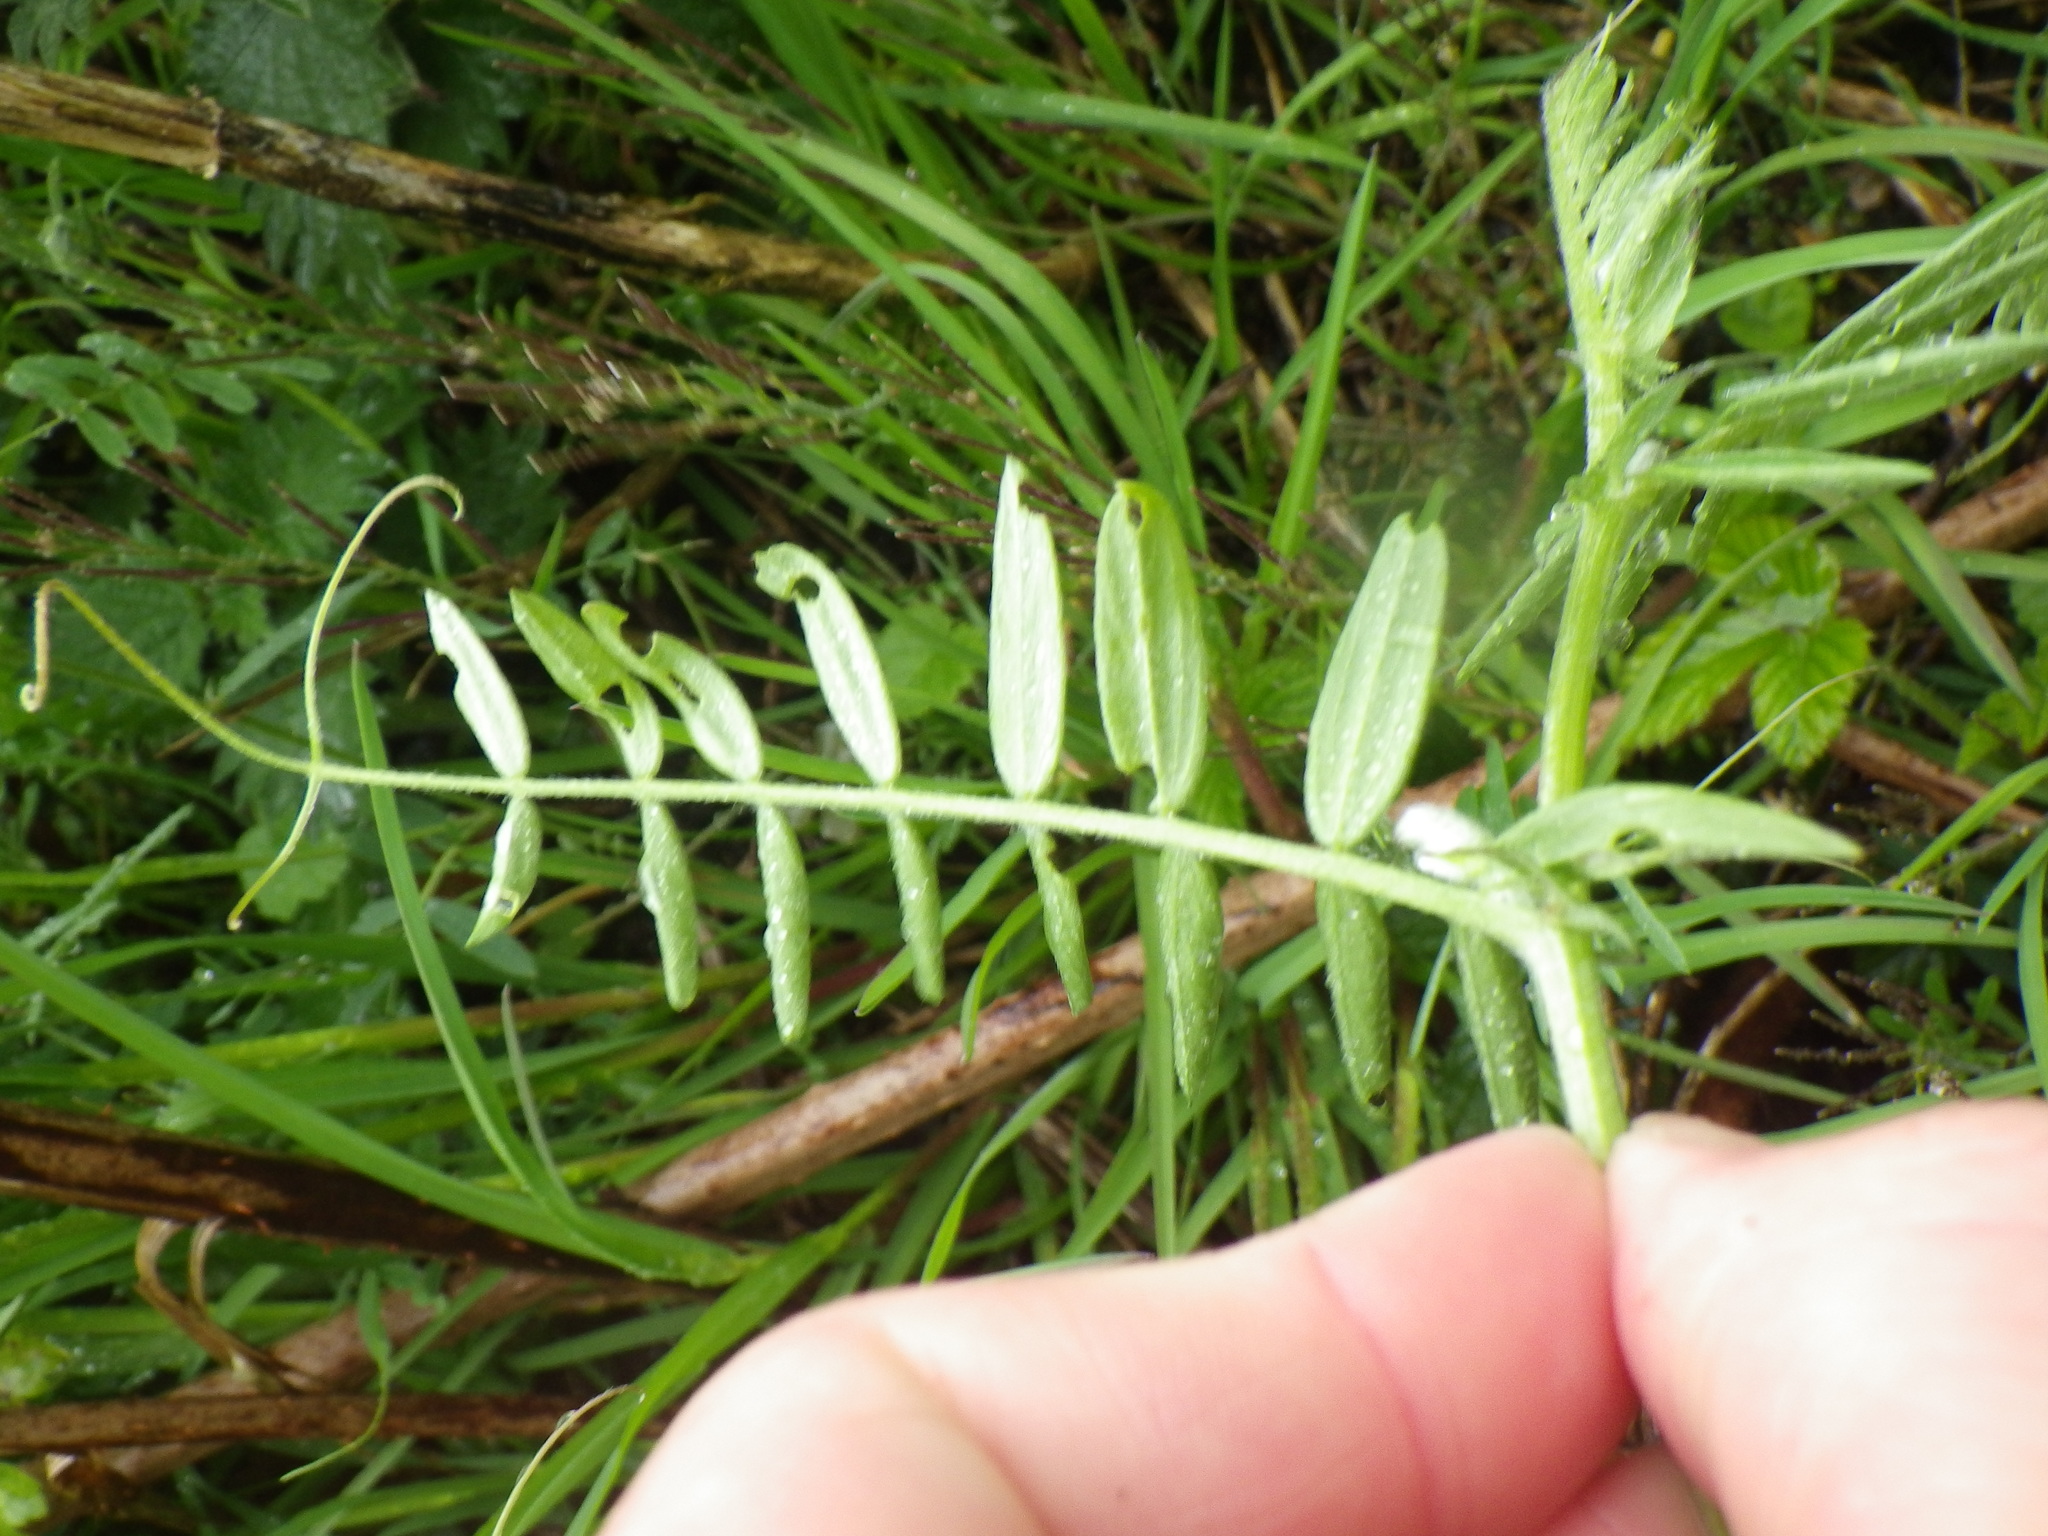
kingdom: Plantae
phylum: Tracheophyta
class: Magnoliopsida
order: Fabales
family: Fabaceae
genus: Vicia
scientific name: Vicia hirsuta
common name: Tiny vetch
